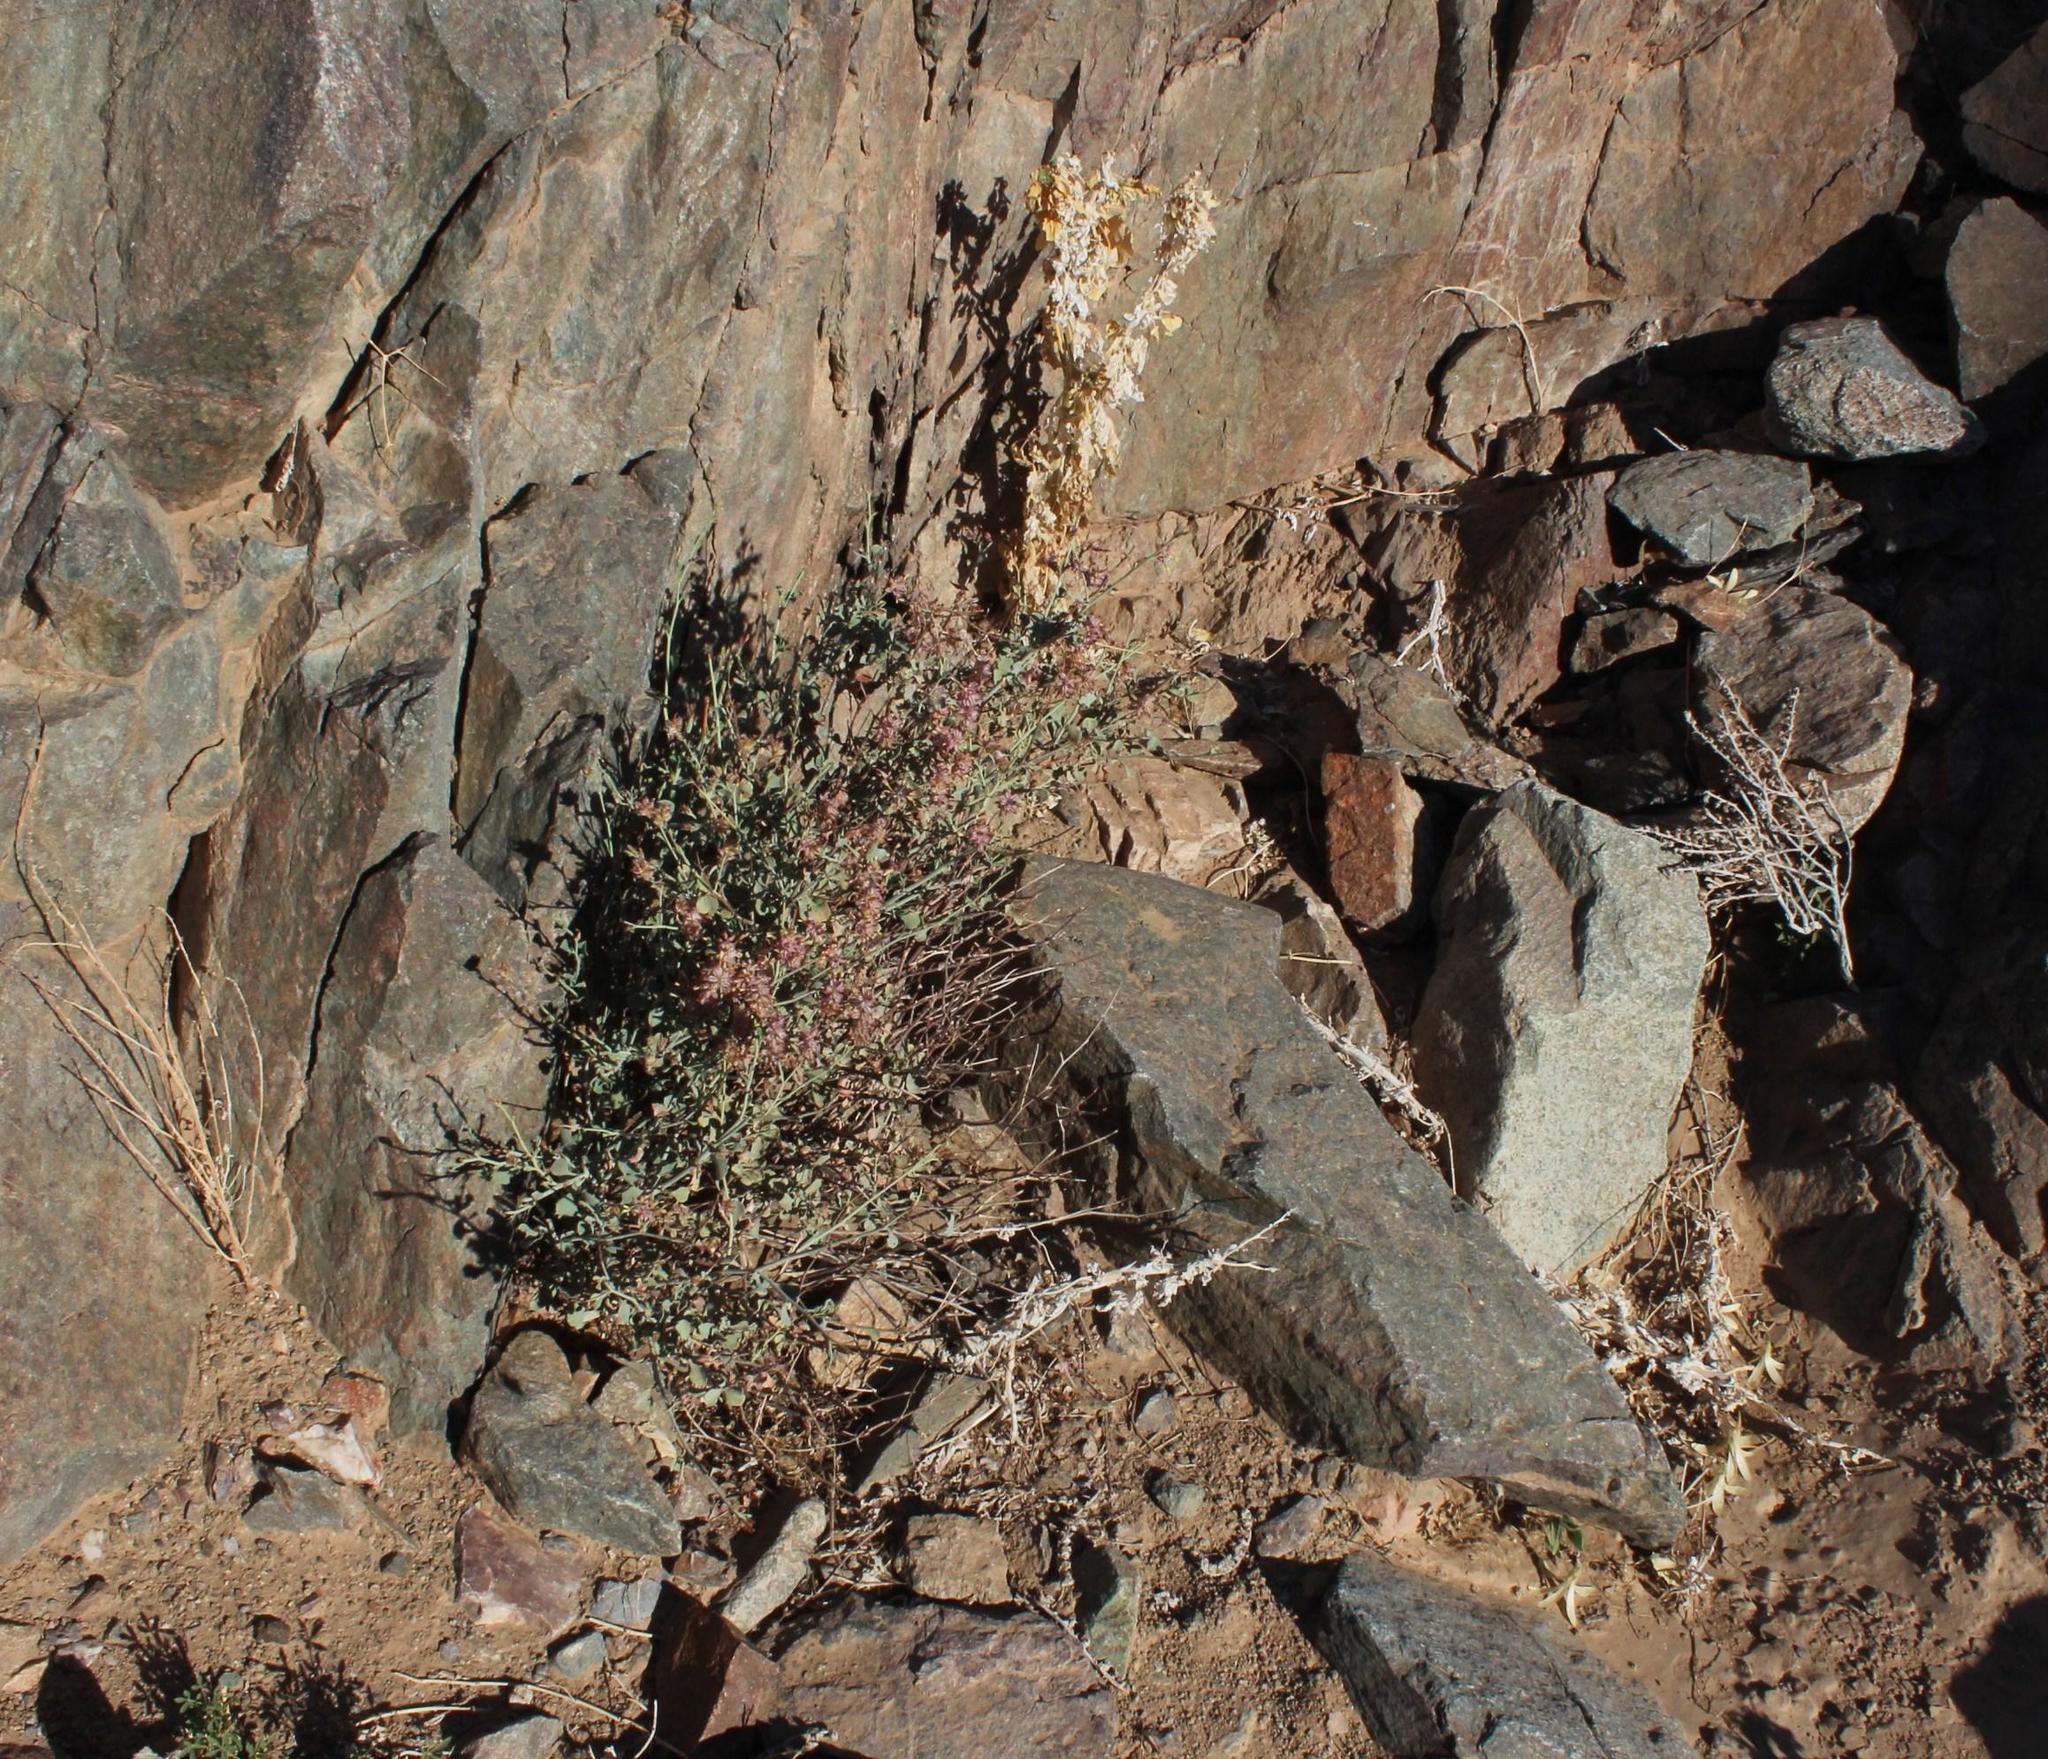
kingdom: Plantae
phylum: Tracheophyta
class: Magnoliopsida
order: Caryophyllales
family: Plumbaginaceae
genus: Dyerophytum
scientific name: Dyerophytum africanum
